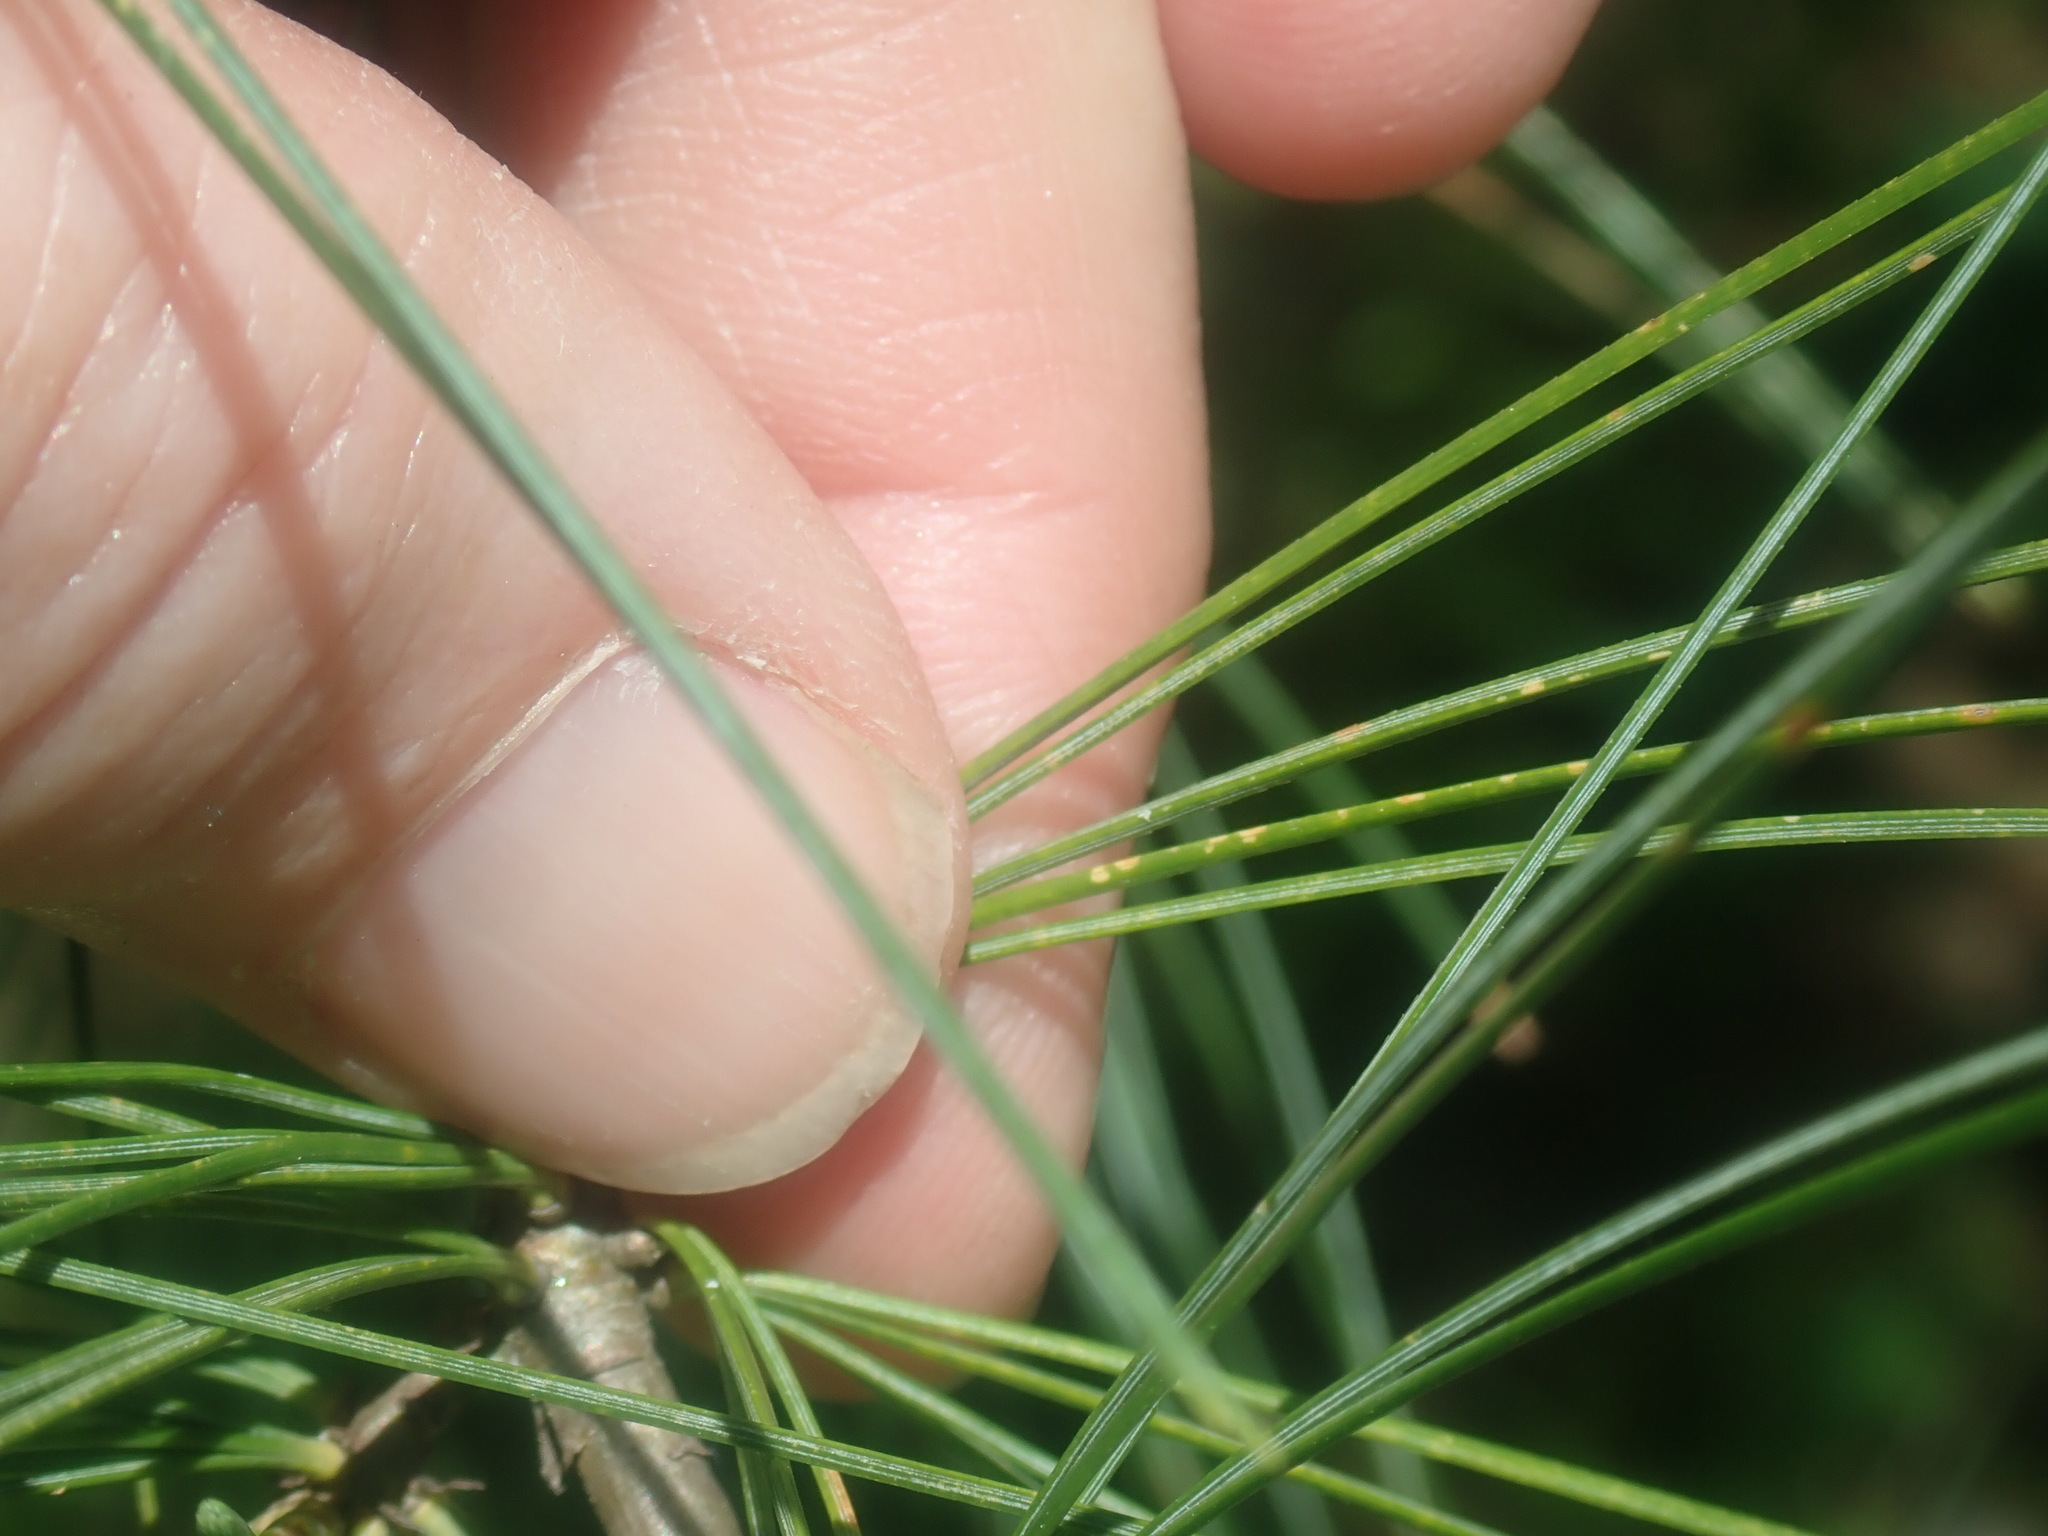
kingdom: Plantae
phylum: Tracheophyta
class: Pinopsida
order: Pinales
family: Pinaceae
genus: Pinus
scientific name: Pinus strobus
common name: Weymouth pine
